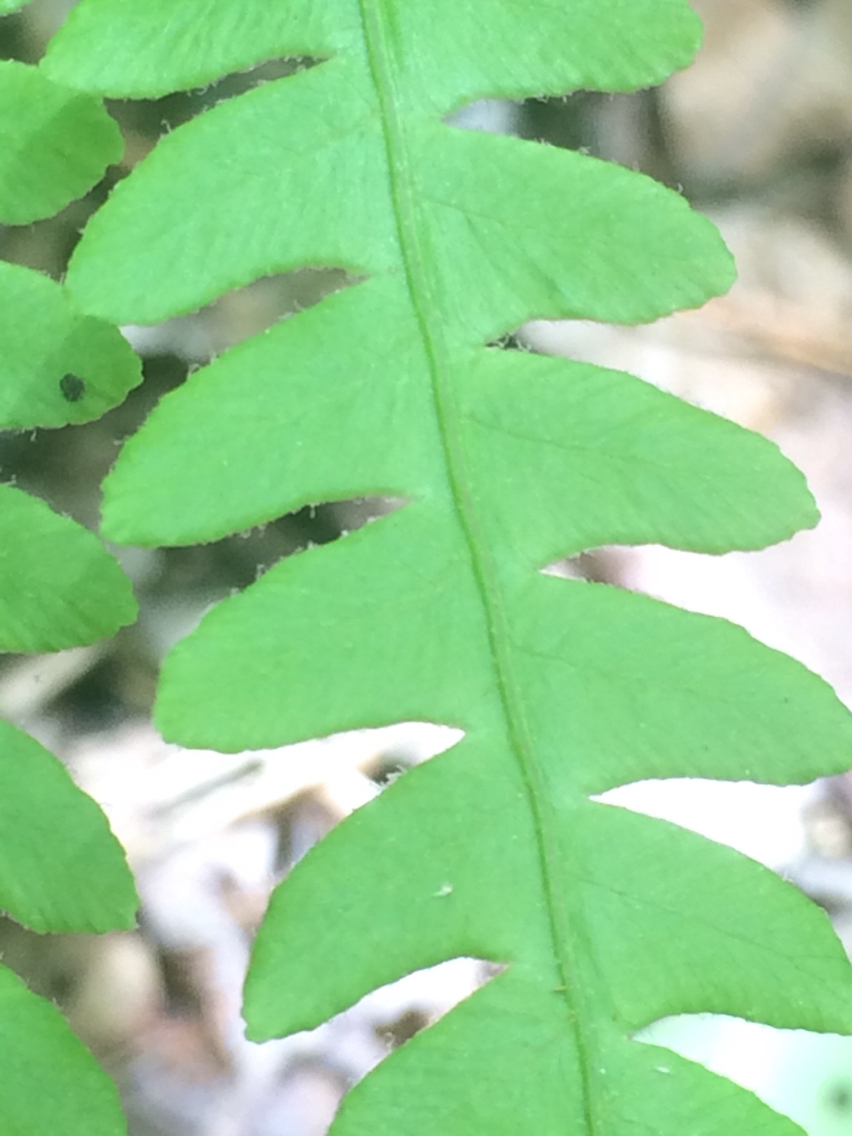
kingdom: Plantae
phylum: Tracheophyta
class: Polypodiopsida
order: Osmundales
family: Osmundaceae
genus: Osmundastrum
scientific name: Osmundastrum cinnamomeum
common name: Cinnamon fern
